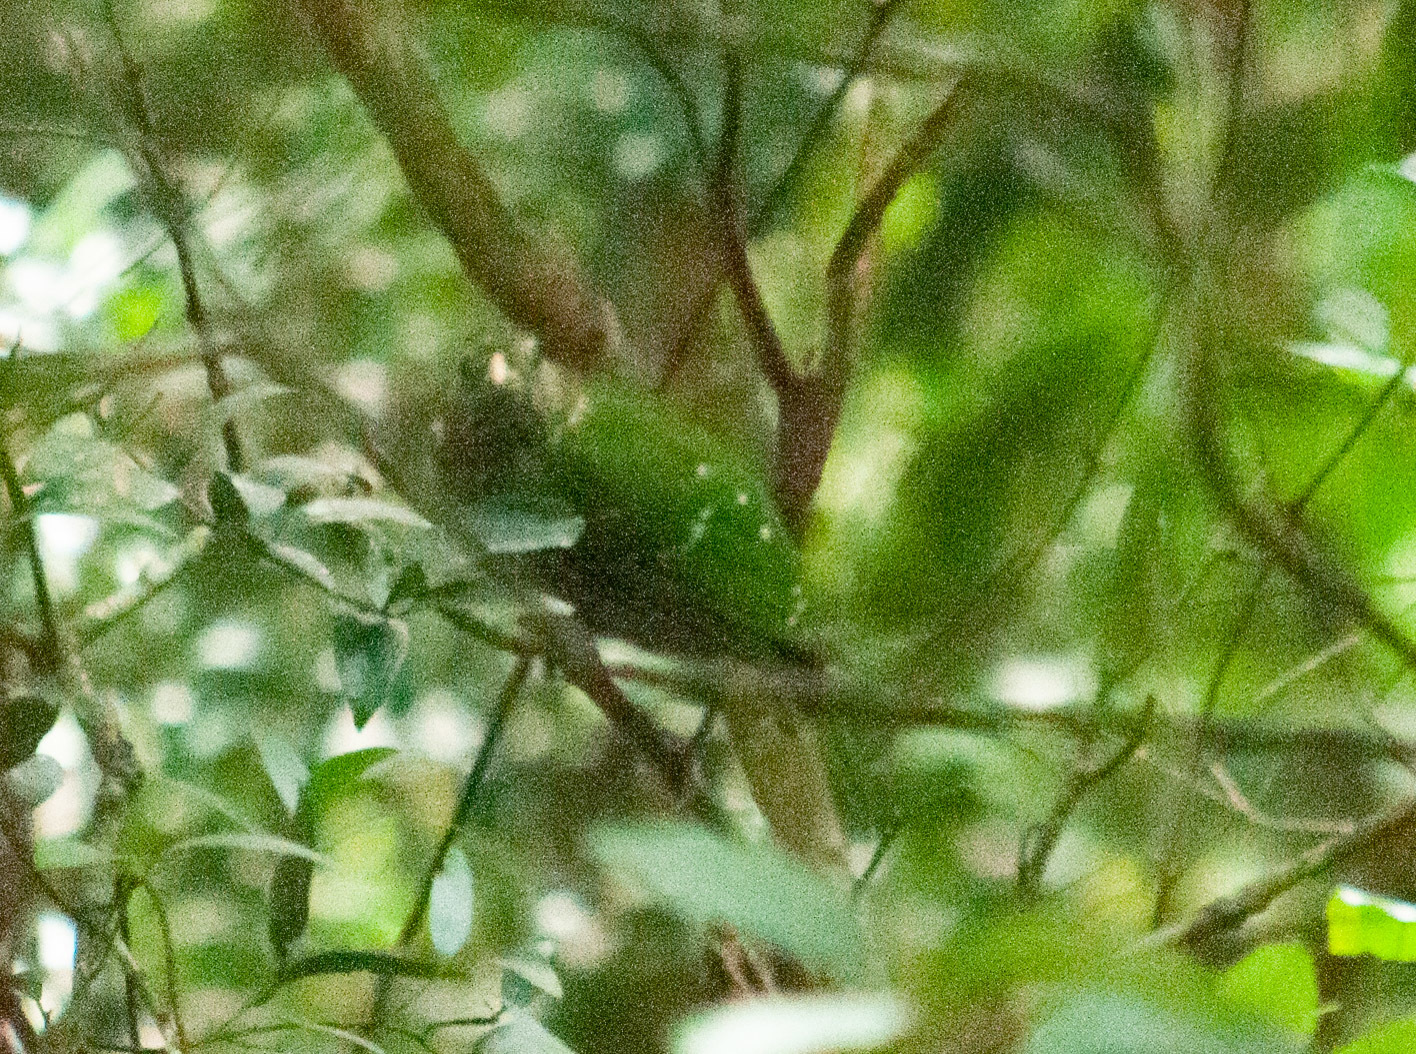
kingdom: Animalia
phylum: Chordata
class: Aves
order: Passeriformes
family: Ptilonorhynchidae
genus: Ailuroedus
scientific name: Ailuroedus crassirostris
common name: Green catbird
